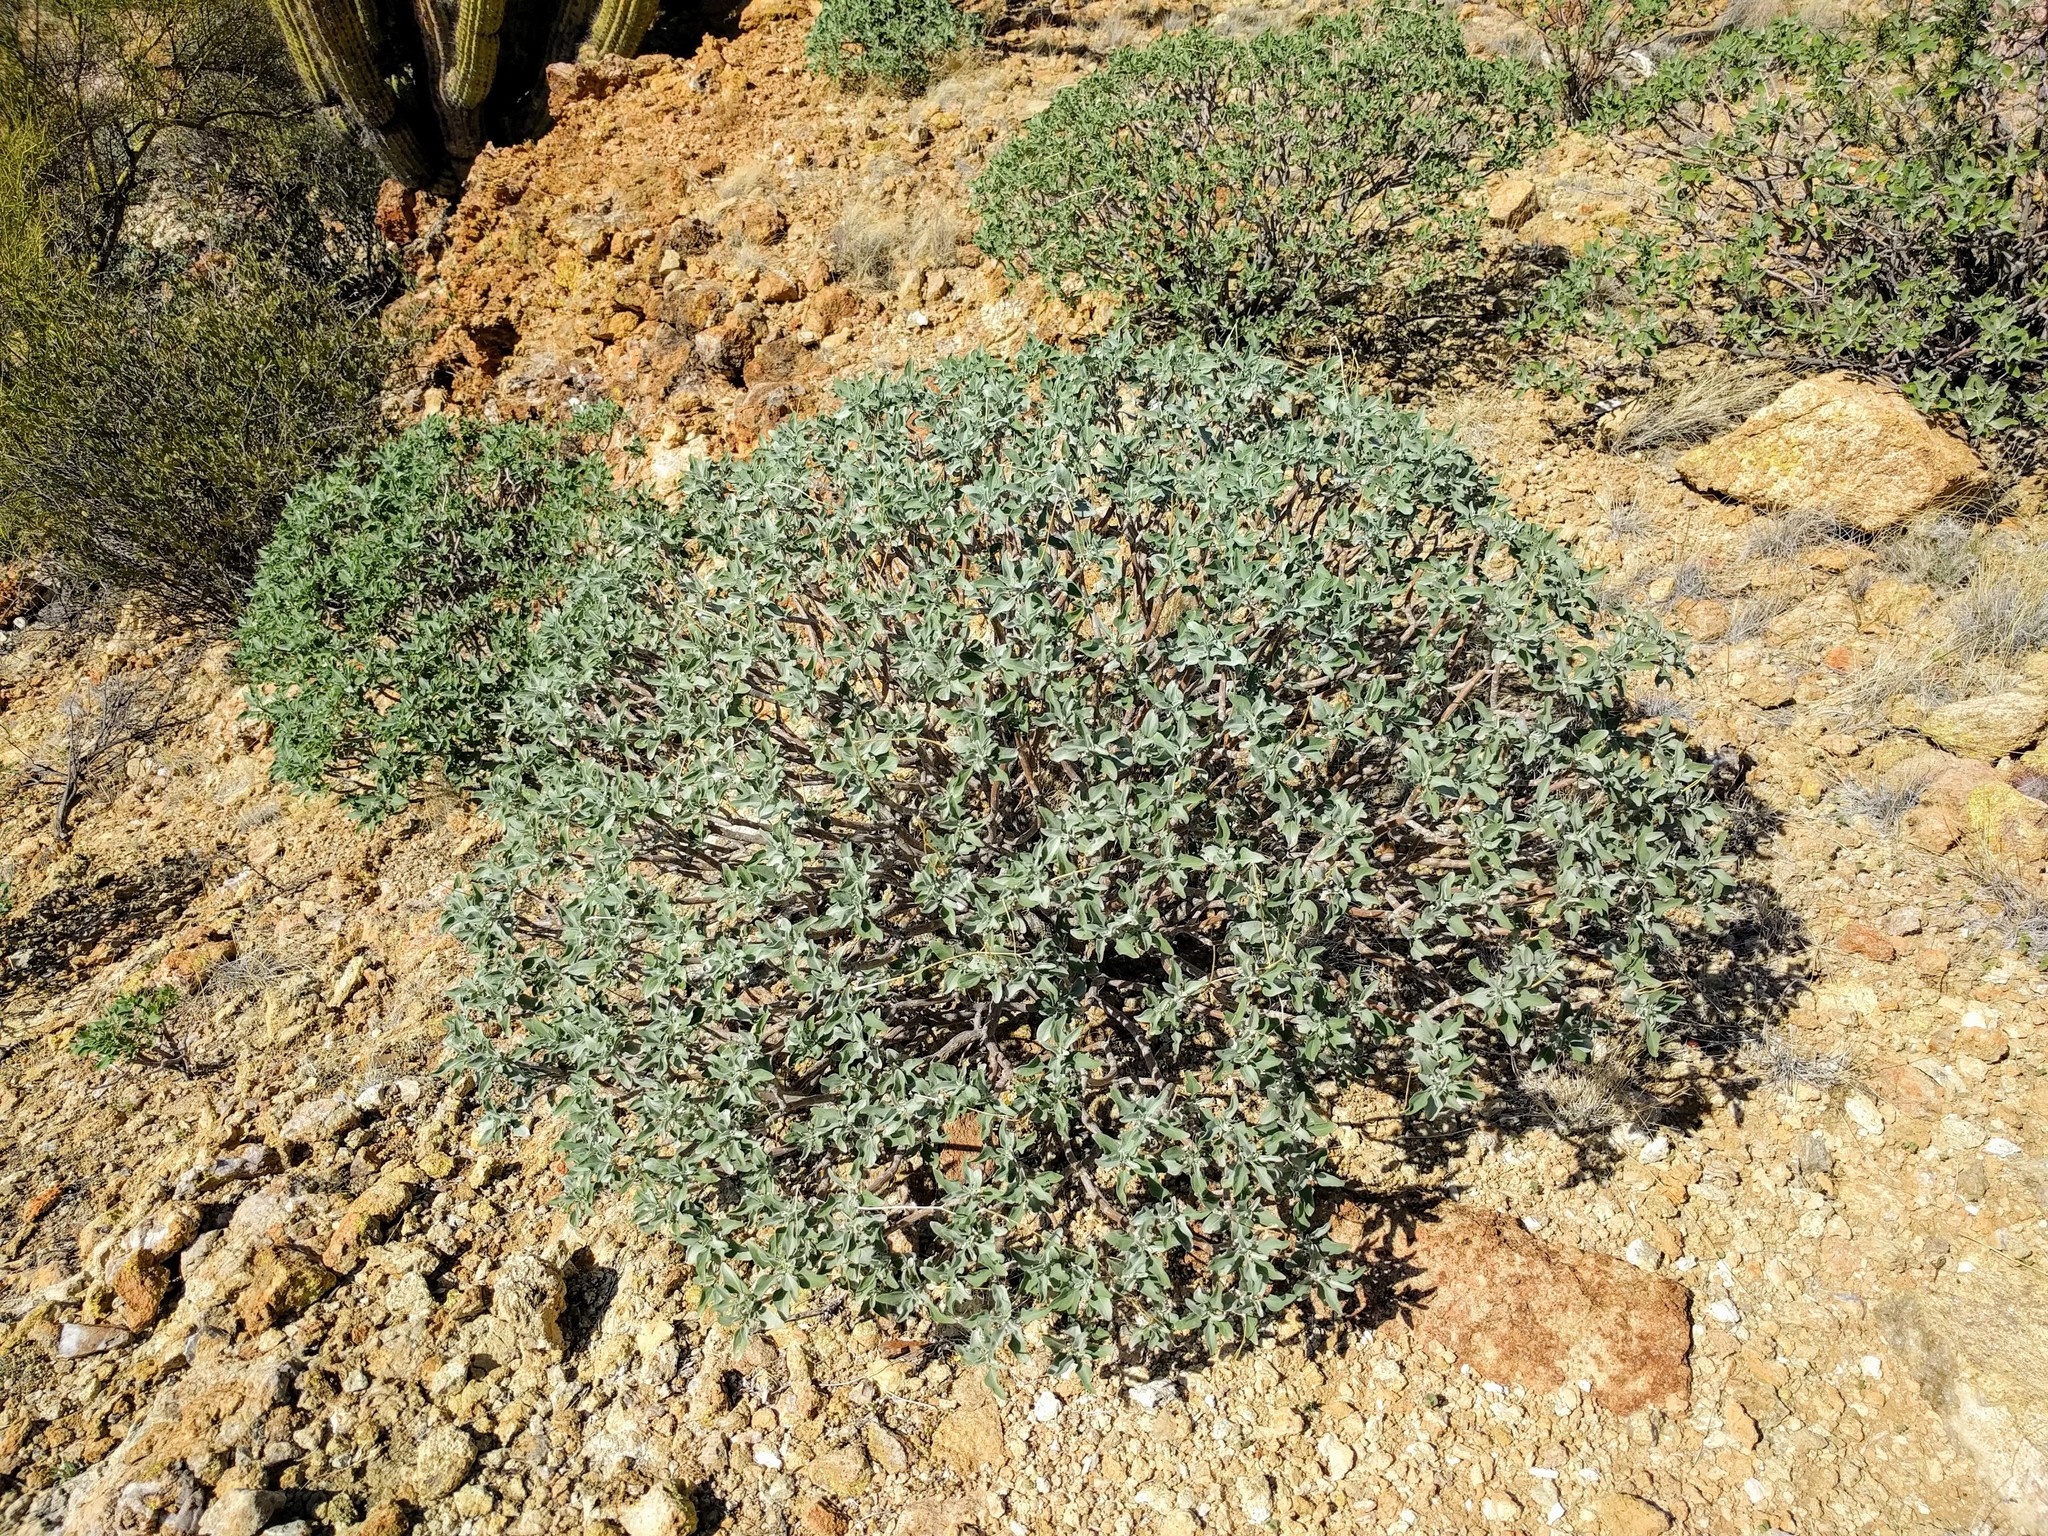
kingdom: Plantae
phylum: Tracheophyta
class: Magnoliopsida
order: Asterales
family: Asteraceae
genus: Encelia
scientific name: Encelia farinosa
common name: Brittlebush
